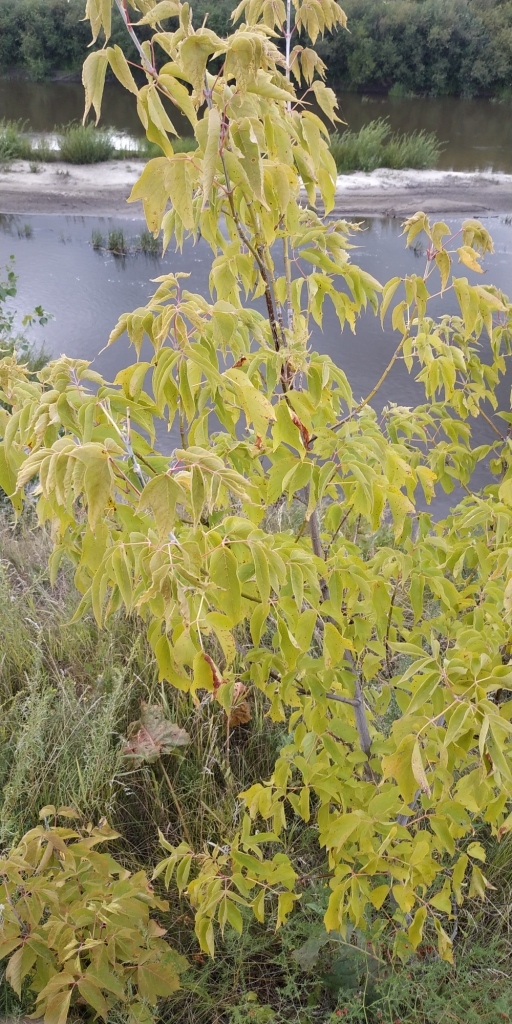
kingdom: Plantae
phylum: Tracheophyta
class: Magnoliopsida
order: Sapindales
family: Sapindaceae
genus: Acer
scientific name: Acer negundo
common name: Ashleaf maple
